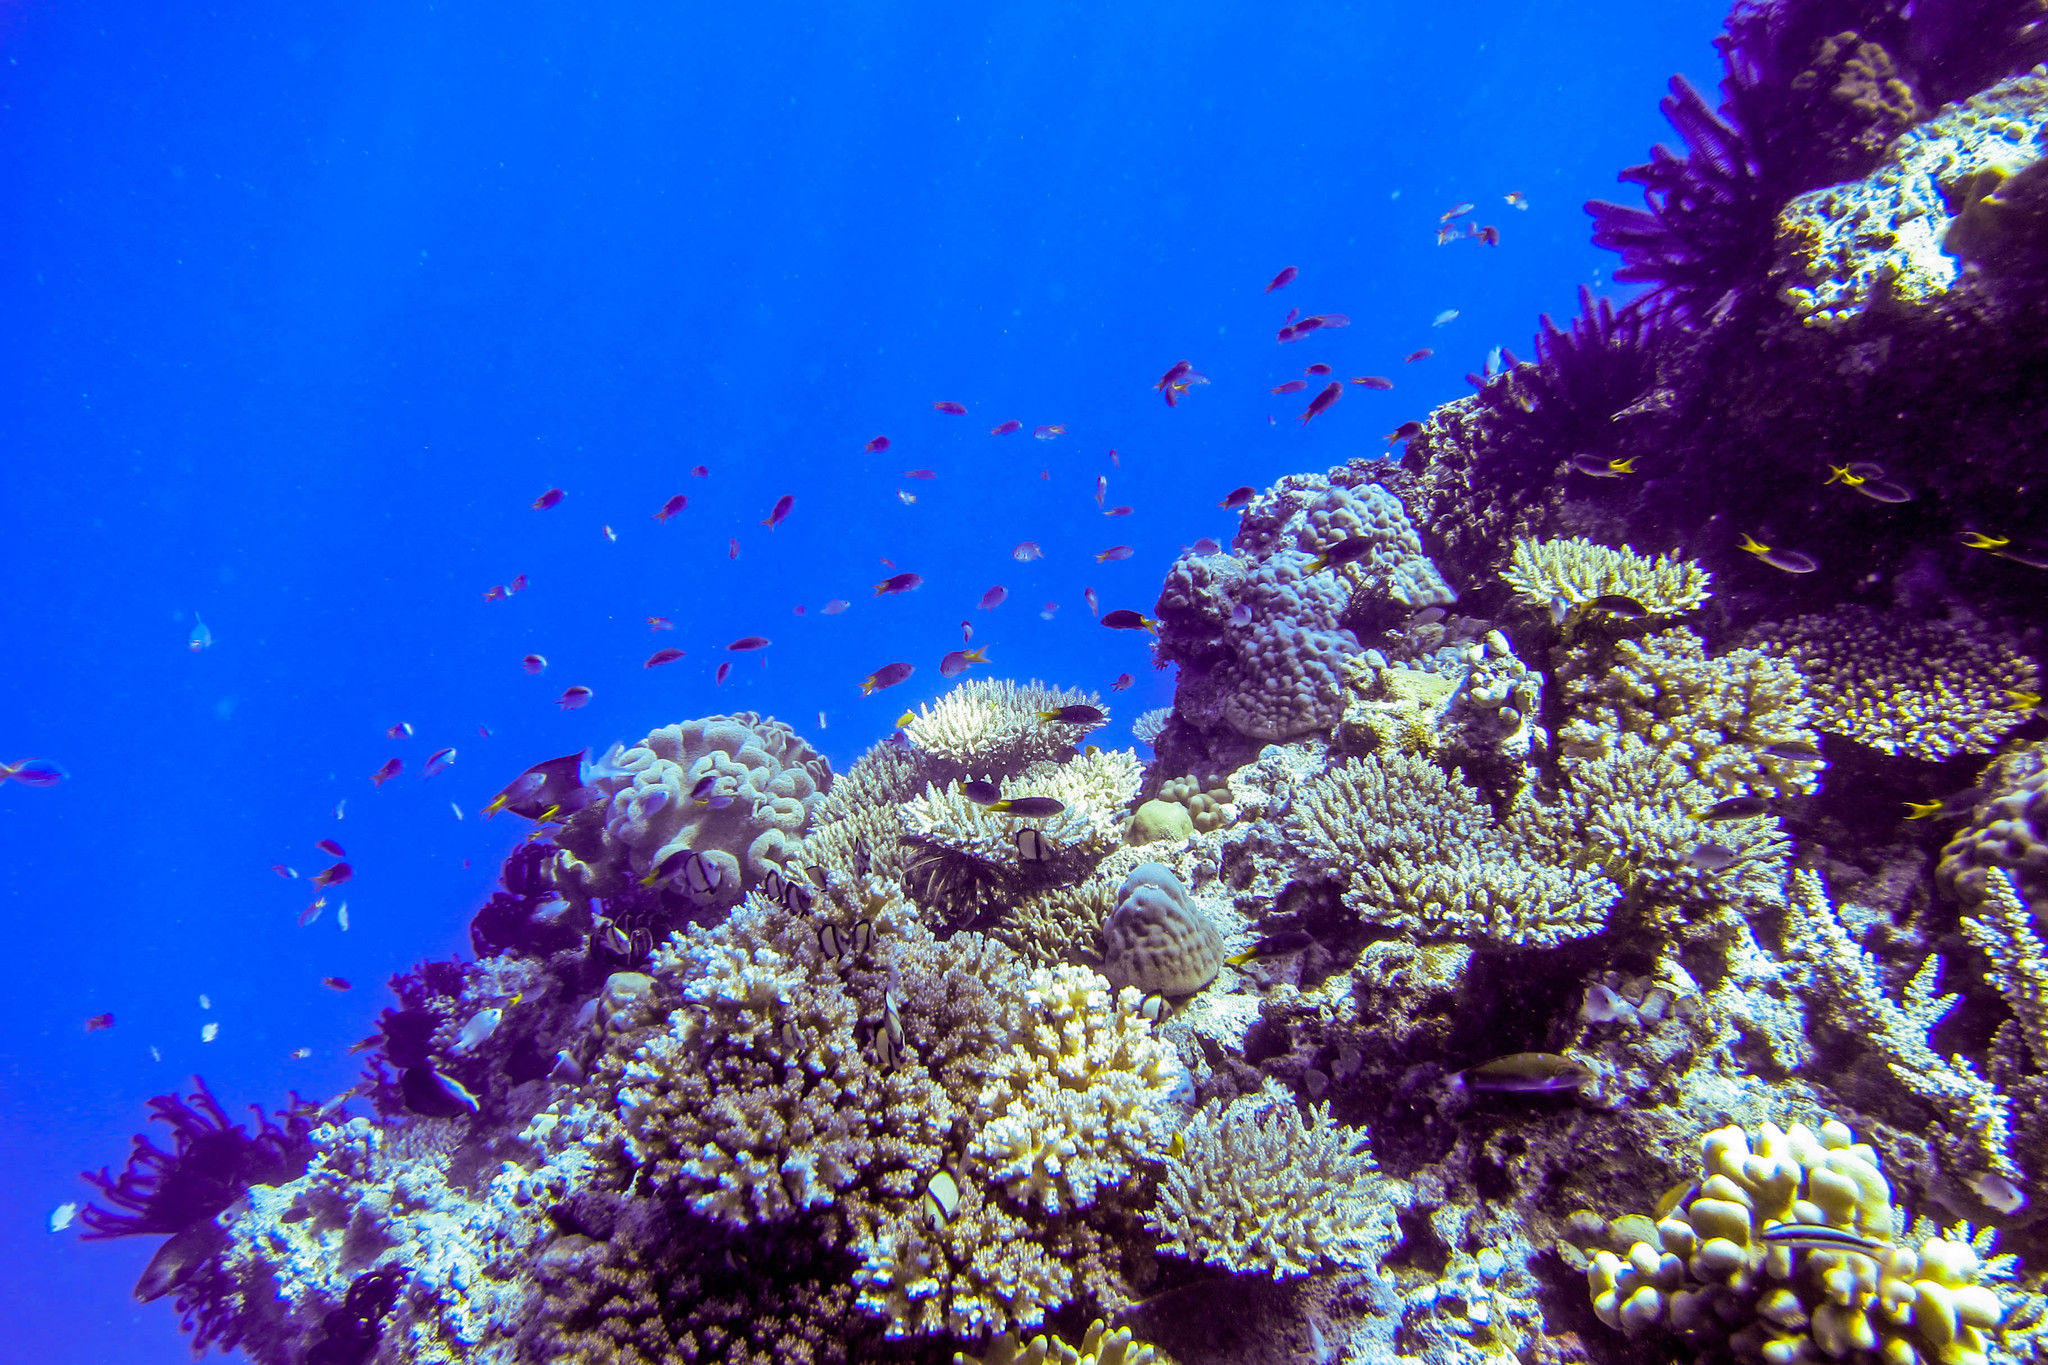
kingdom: Animalia
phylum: Chordata
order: Perciformes
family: Pomacentridae
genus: Neopomacentrus
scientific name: Neopomacentrus azysron
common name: Yellow-tail damsel
